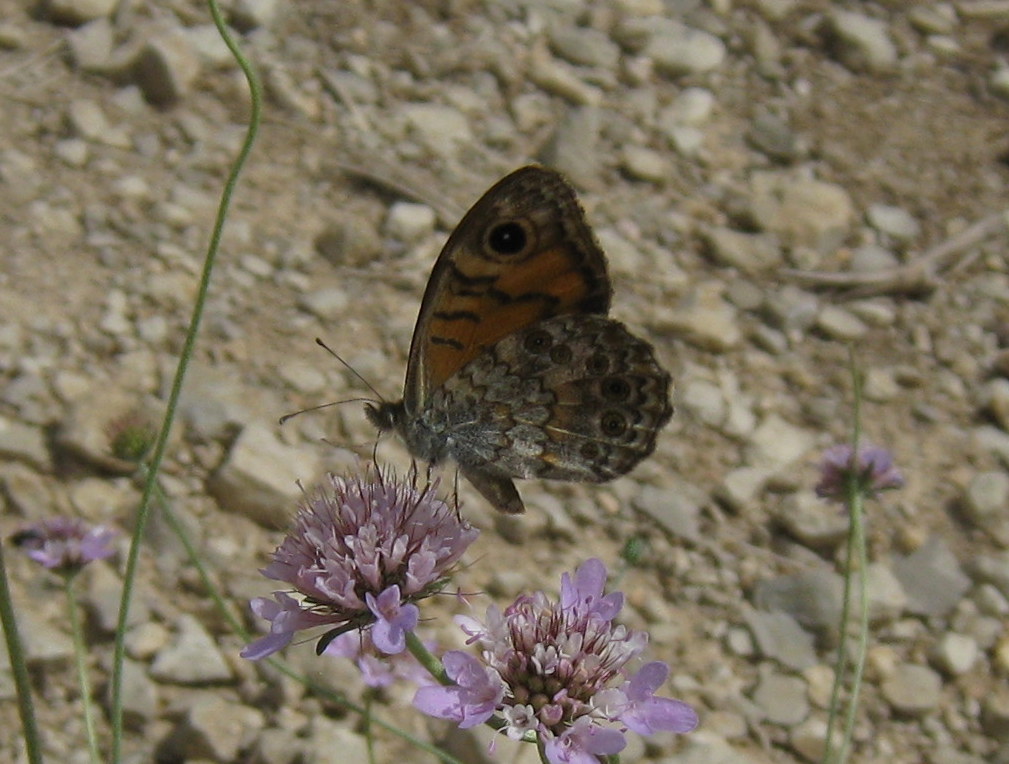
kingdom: Animalia
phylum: Arthropoda
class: Insecta
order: Lepidoptera
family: Nymphalidae
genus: Pararge
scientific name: Pararge Lasiommata megera
